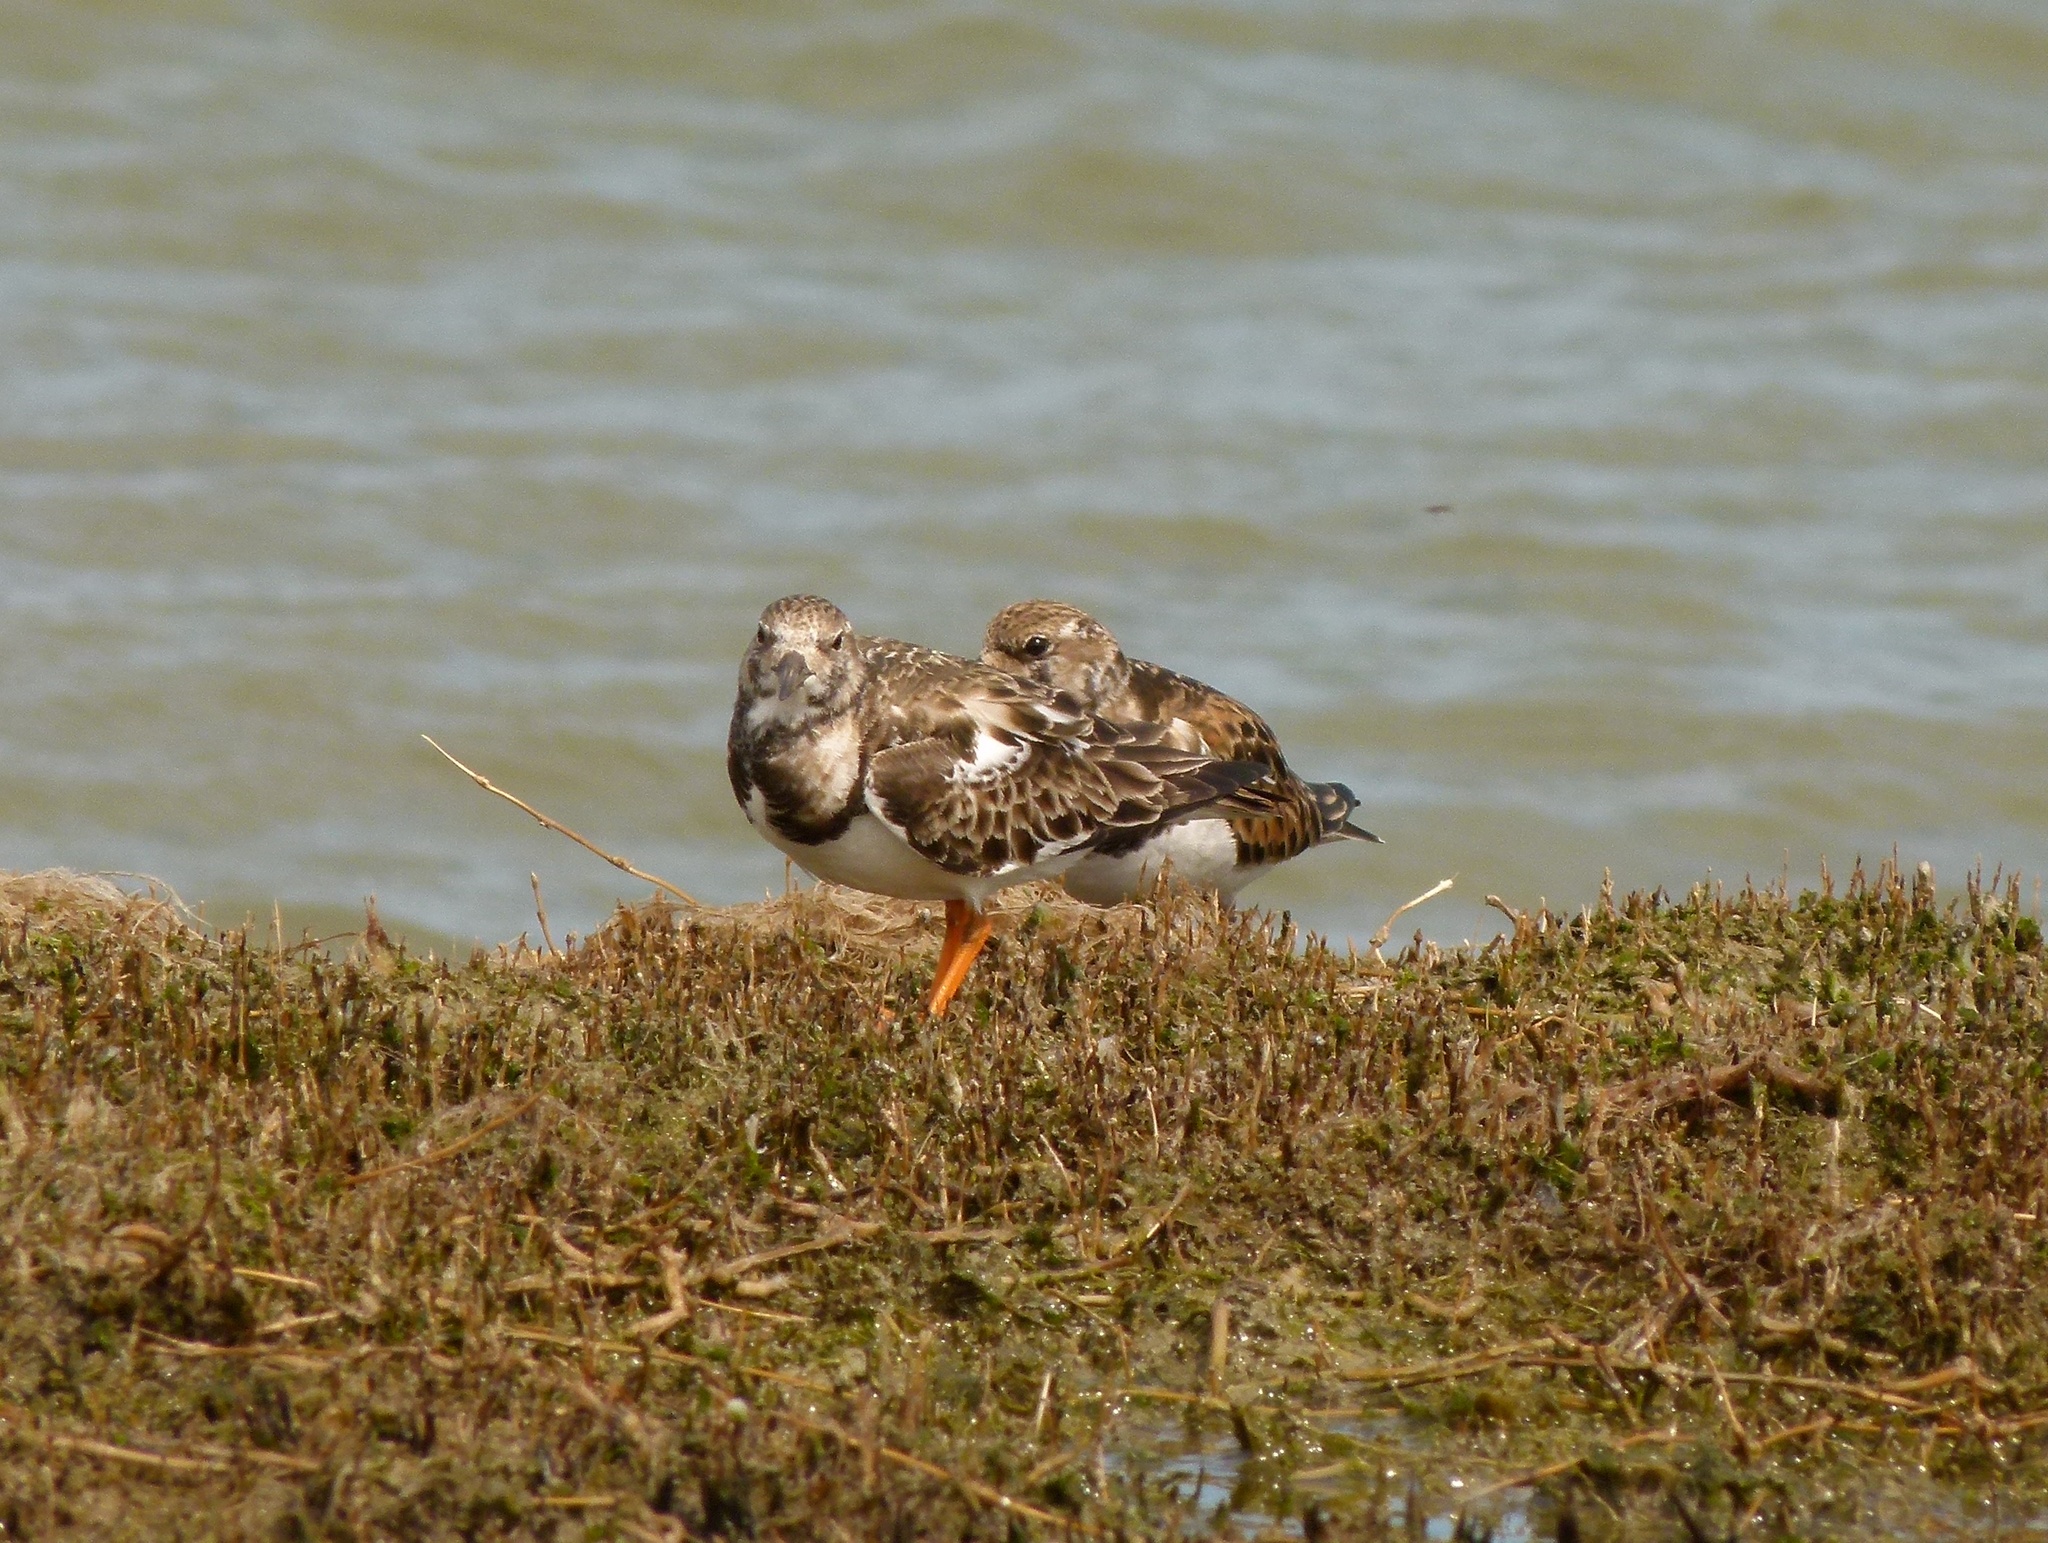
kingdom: Animalia
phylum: Chordata
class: Aves
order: Charadriiformes
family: Scolopacidae
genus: Arenaria
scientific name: Arenaria interpres
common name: Ruddy turnstone
